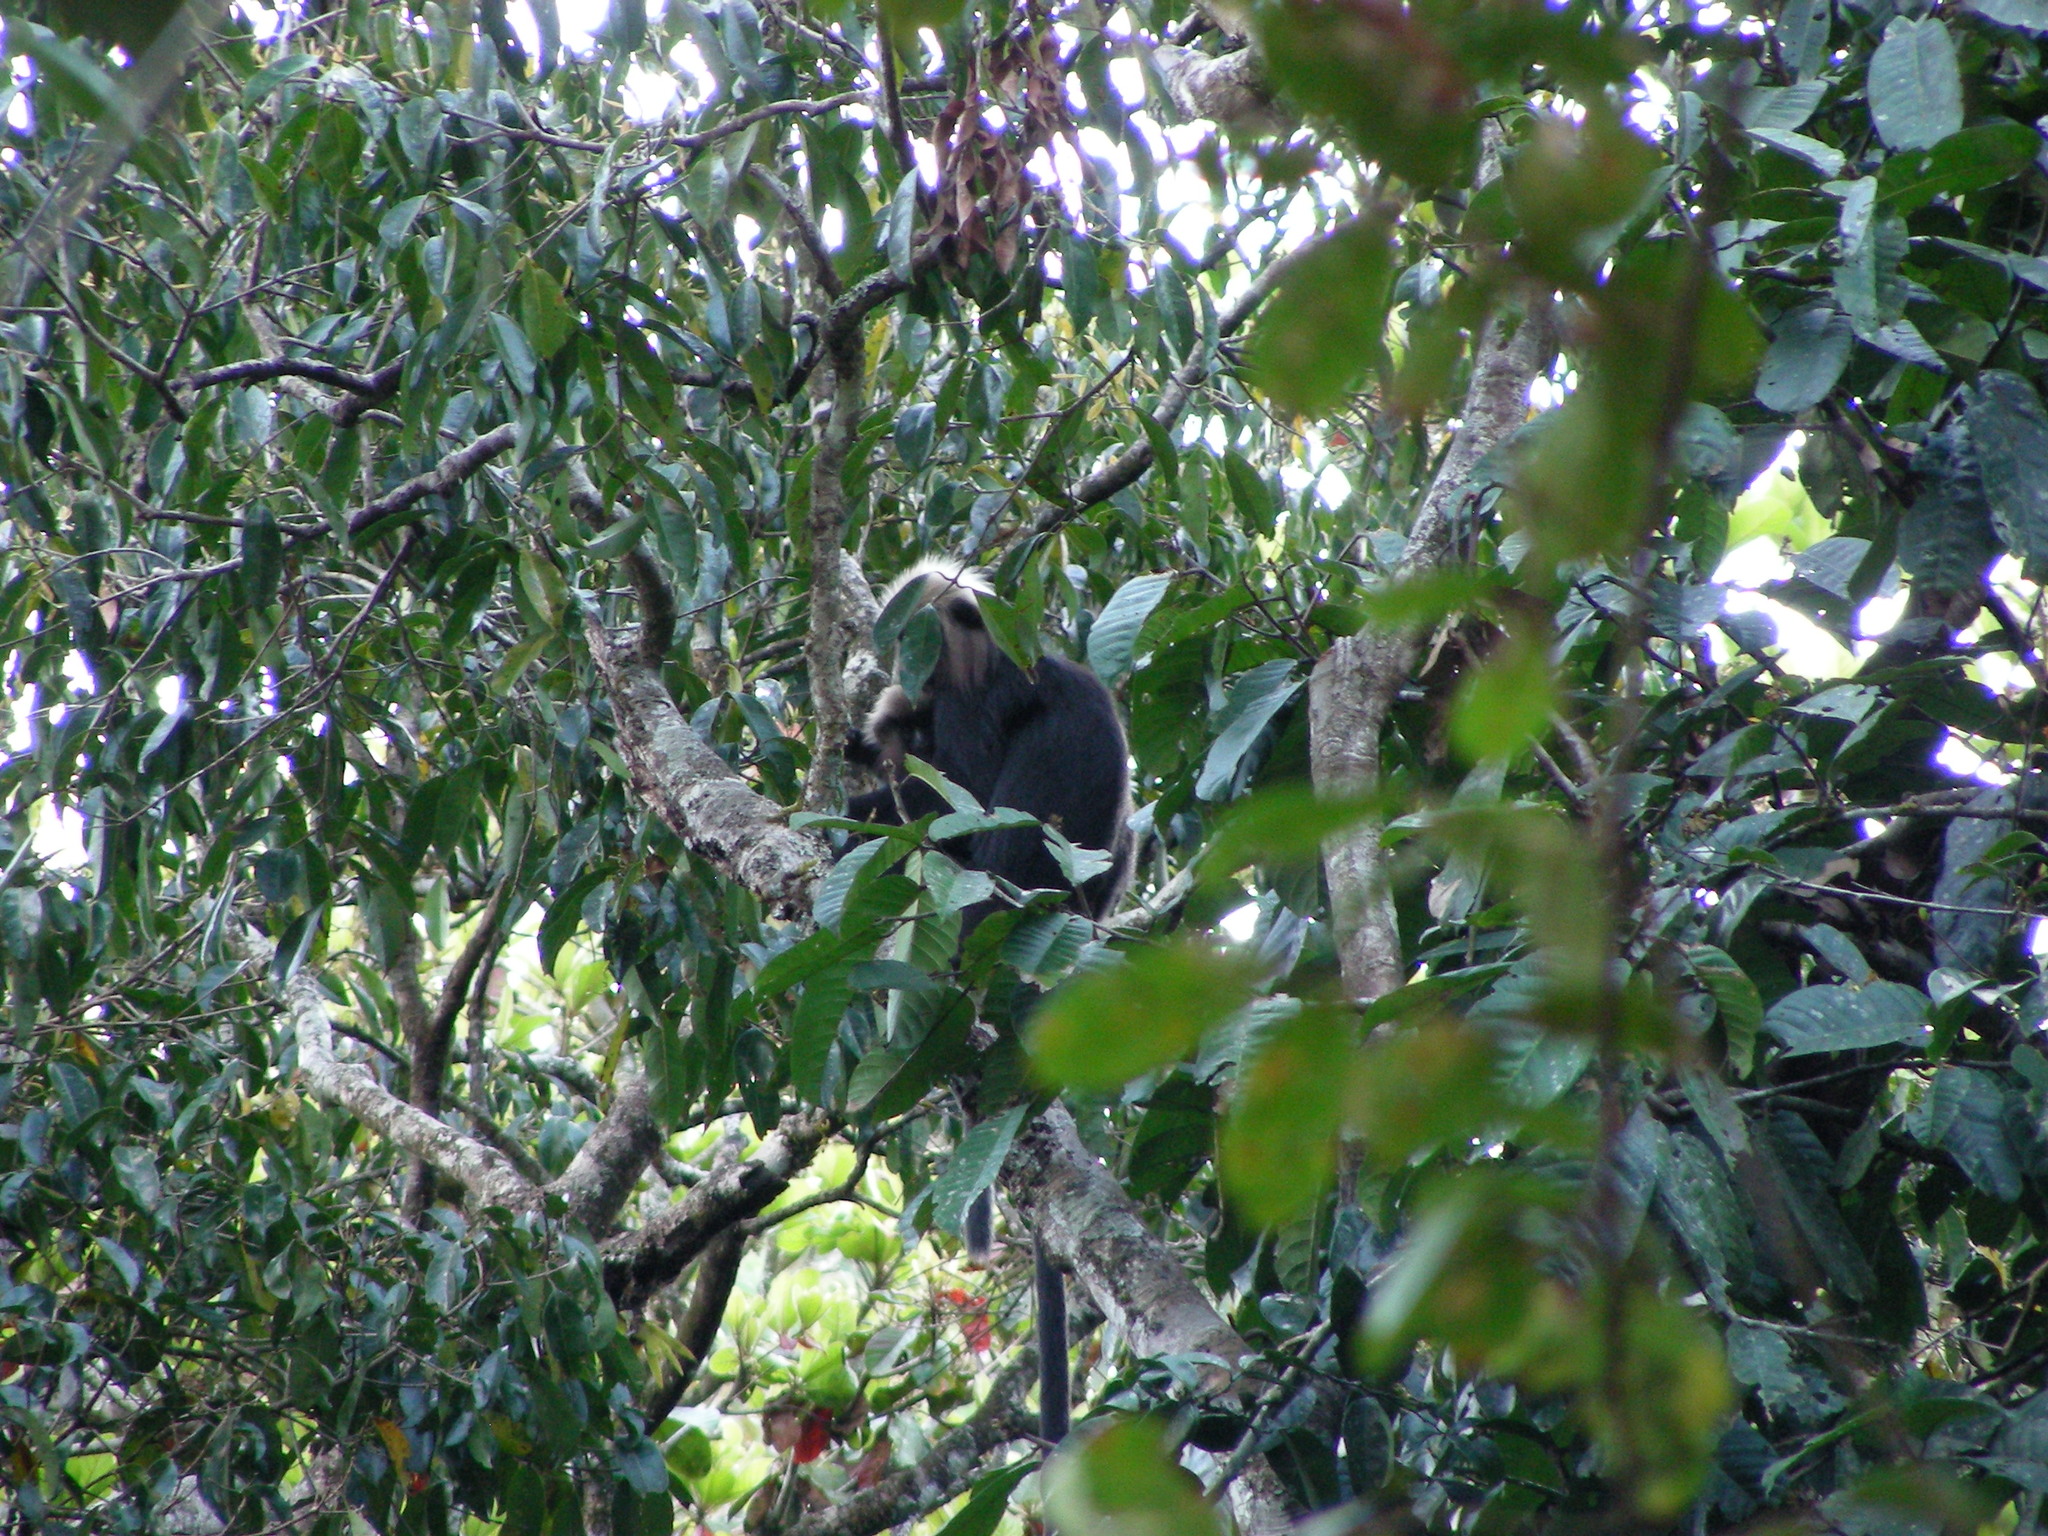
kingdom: Animalia
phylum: Chordata
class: Mammalia
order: Primates
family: Cercopithecidae
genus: Semnopithecus
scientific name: Semnopithecus johnii
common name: Nilgiri langur
